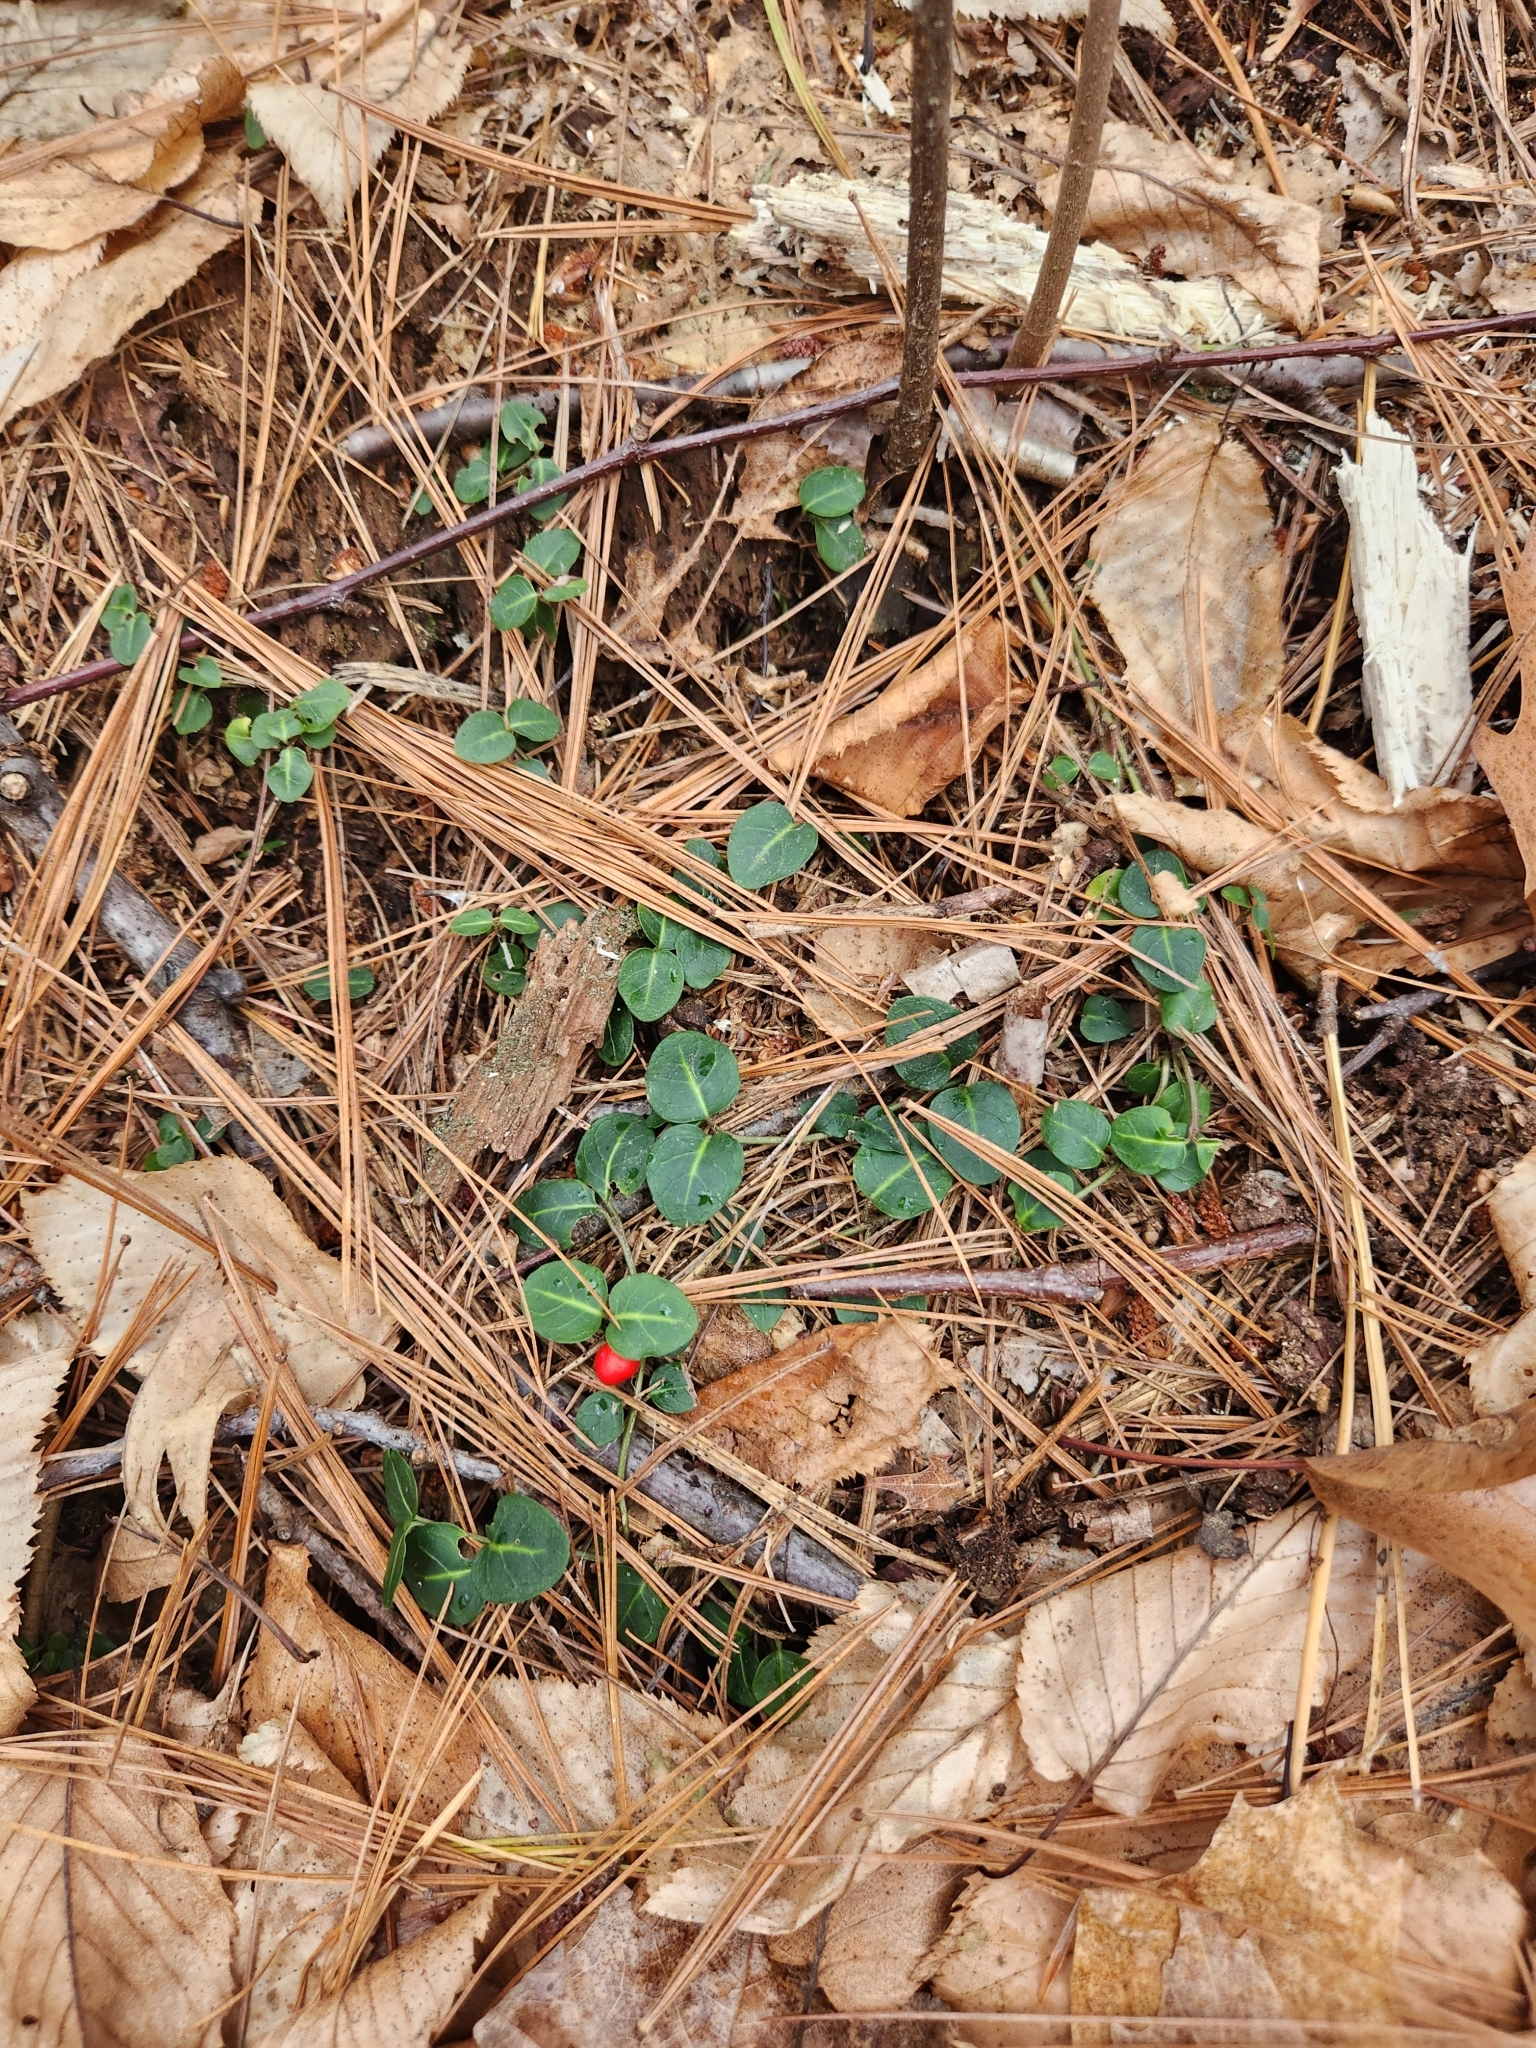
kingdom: Plantae
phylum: Tracheophyta
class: Magnoliopsida
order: Gentianales
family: Rubiaceae
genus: Mitchella
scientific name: Mitchella repens
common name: Partridge-berry
